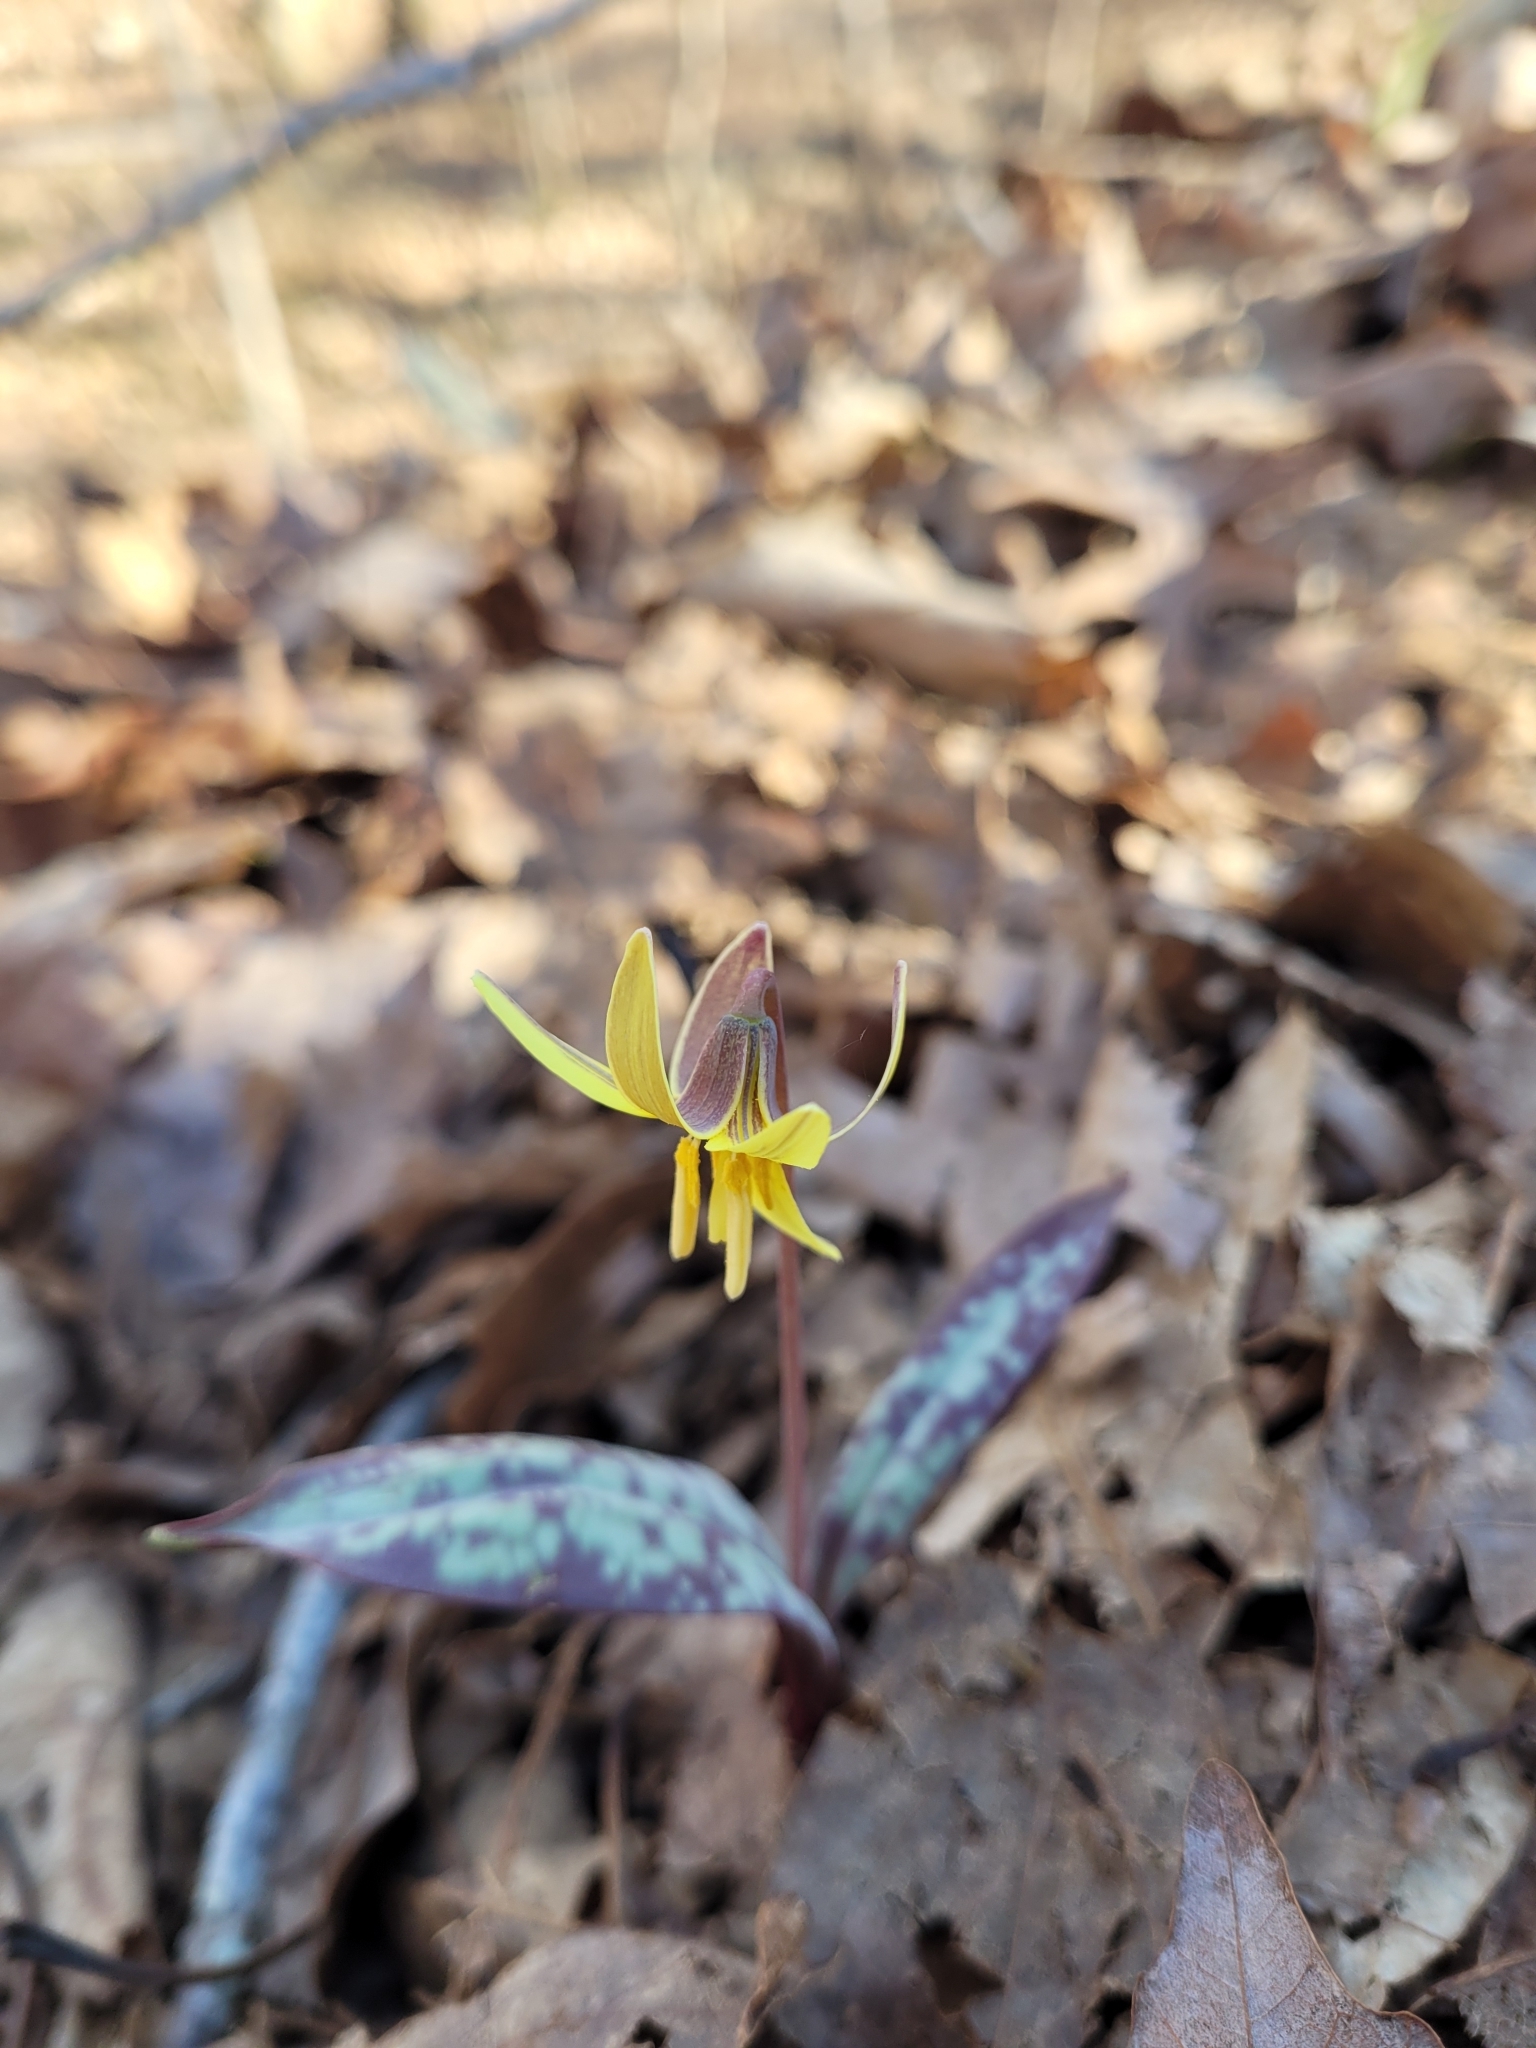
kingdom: Plantae
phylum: Tracheophyta
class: Liliopsida
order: Liliales
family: Liliaceae
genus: Erythronium
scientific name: Erythronium umbilicatum
